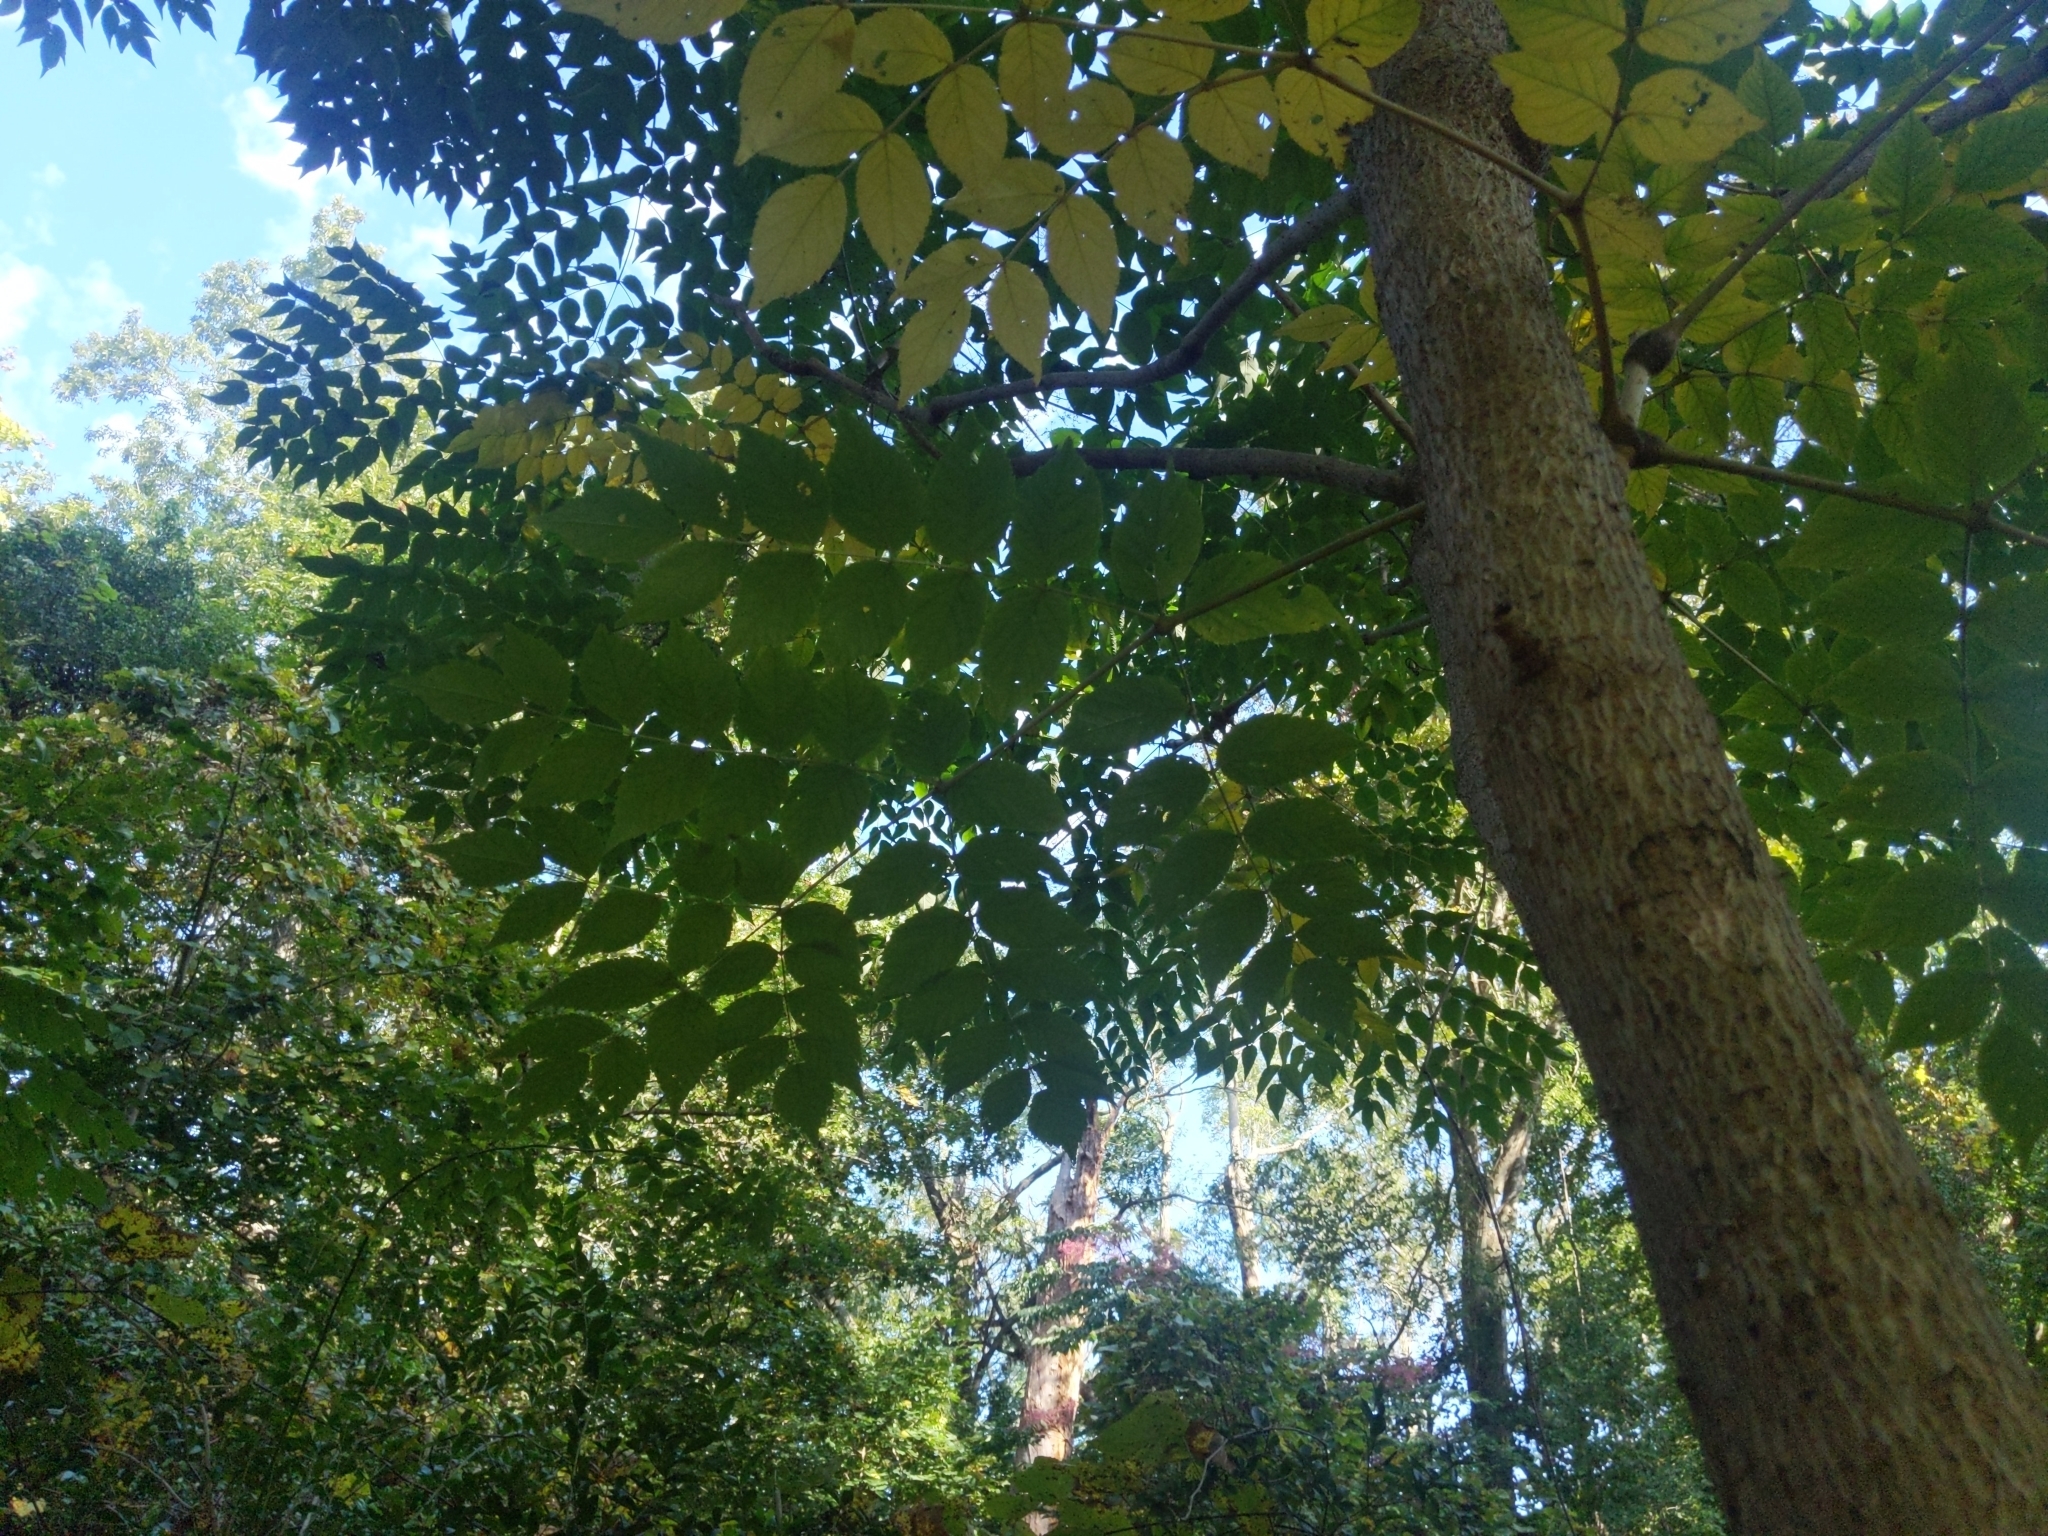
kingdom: Plantae
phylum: Tracheophyta
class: Magnoliopsida
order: Apiales
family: Araliaceae
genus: Aralia
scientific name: Aralia elata
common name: Japanese angelica-tree
